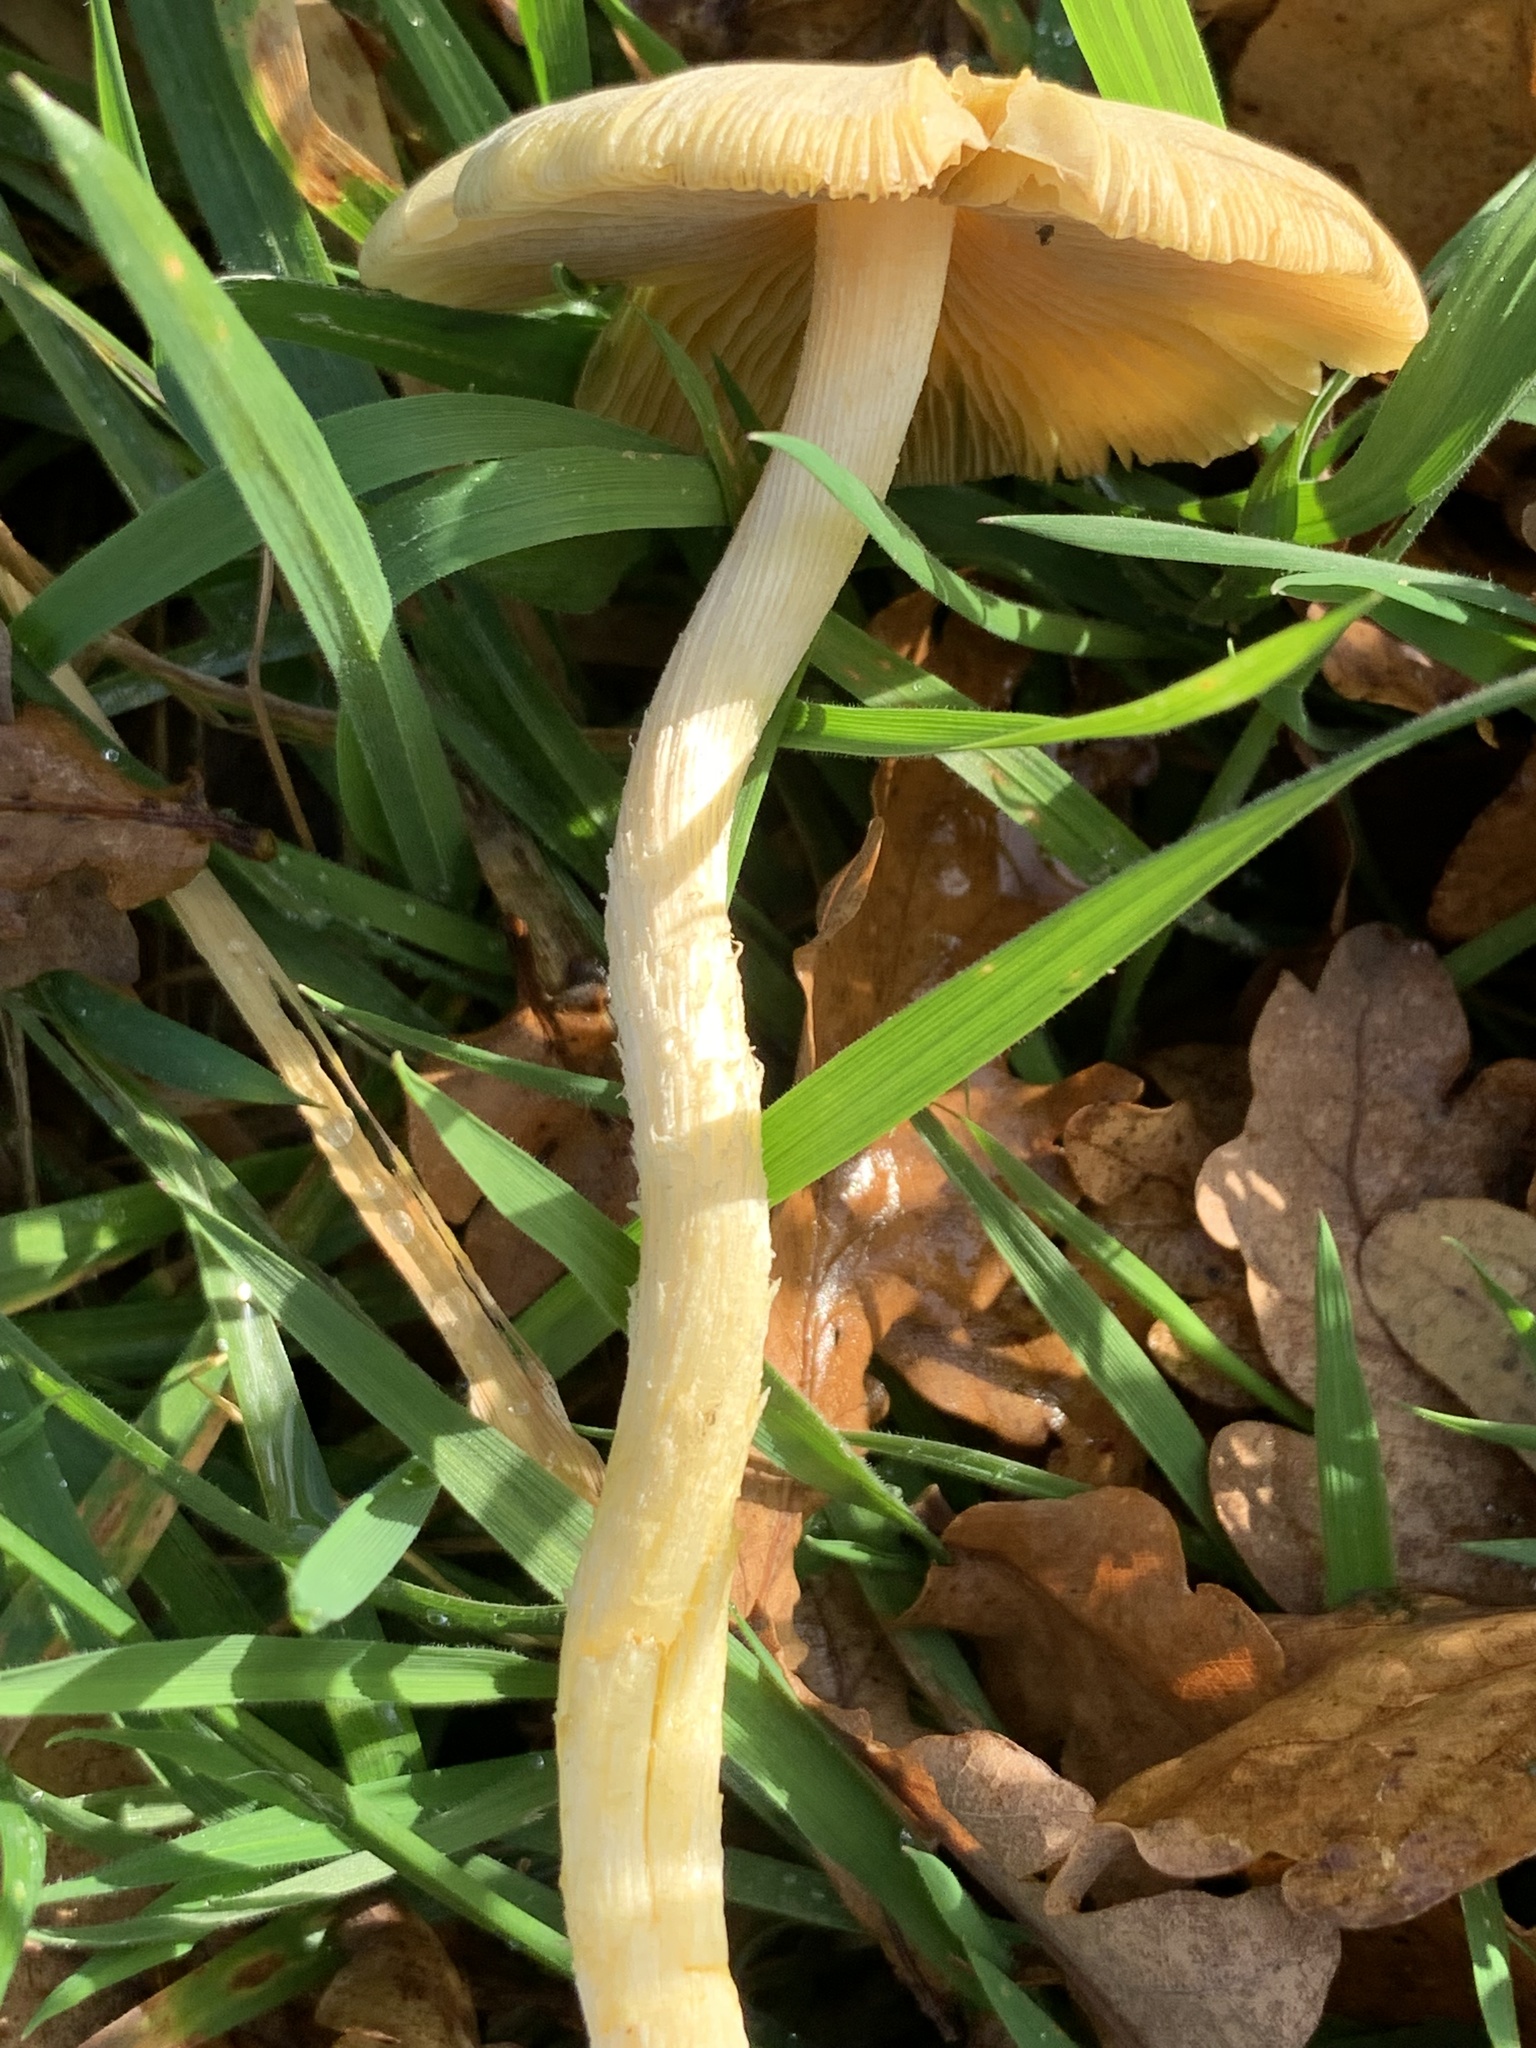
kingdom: Fungi
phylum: Basidiomycota
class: Agaricomycetes
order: Agaricales
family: Bolbitiaceae
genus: Bolbitius
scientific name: Bolbitius titubans
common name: Yellow fieldcap
